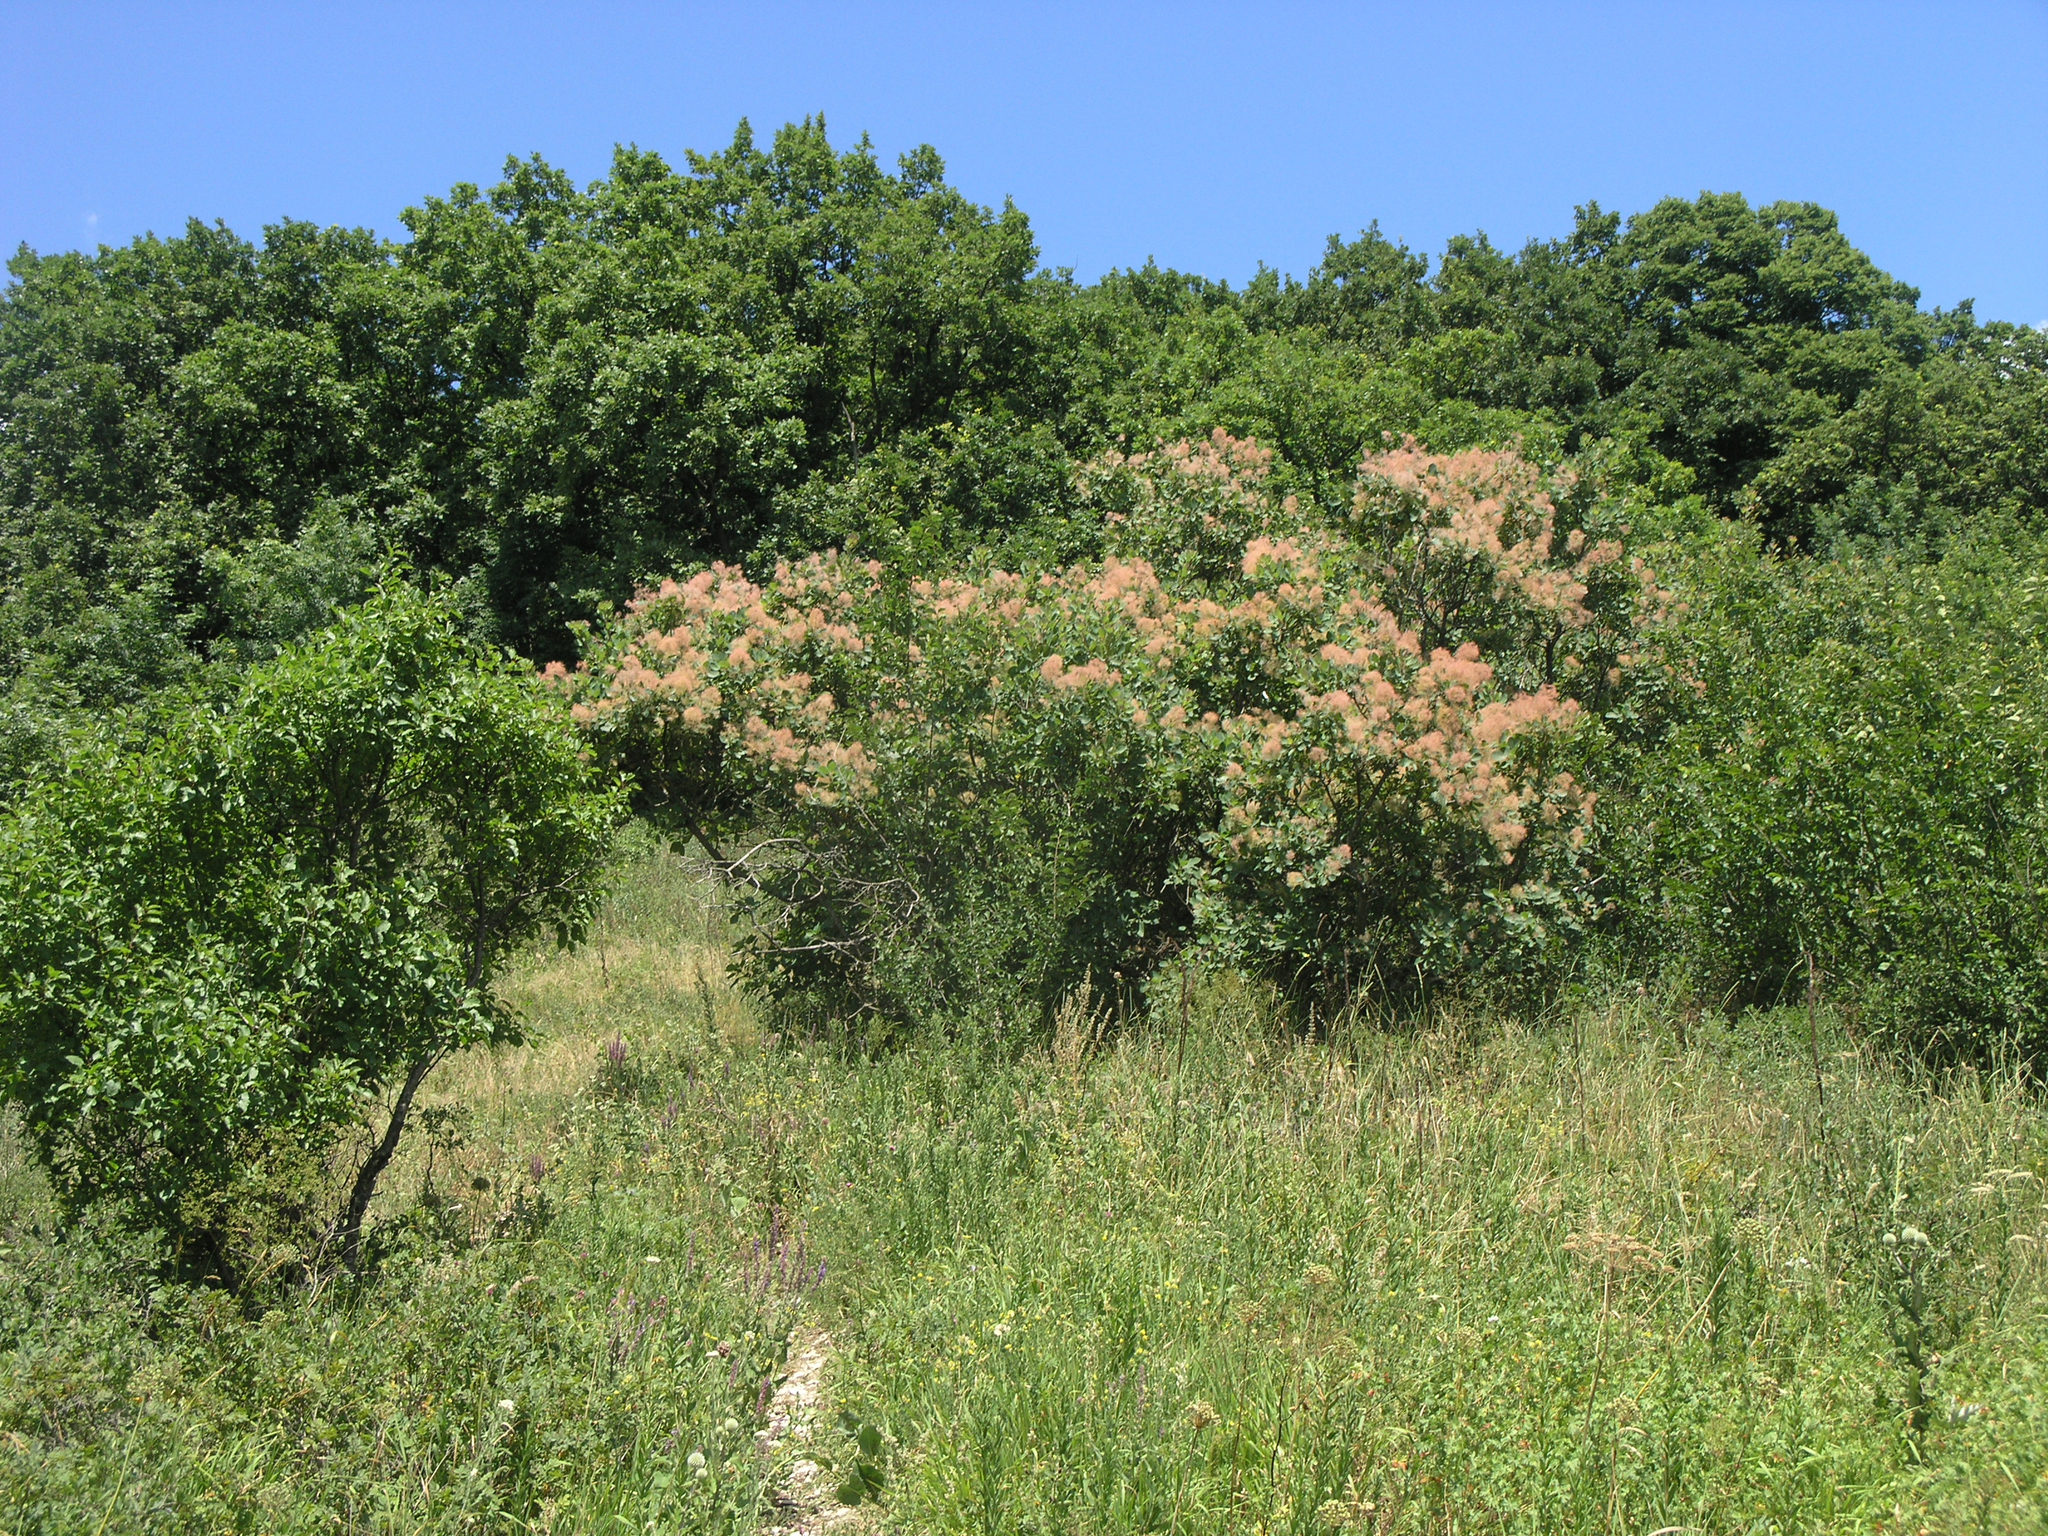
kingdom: Plantae
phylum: Tracheophyta
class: Magnoliopsida
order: Sapindales
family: Anacardiaceae
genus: Cotinus
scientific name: Cotinus coggygria
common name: Smoke-tree
